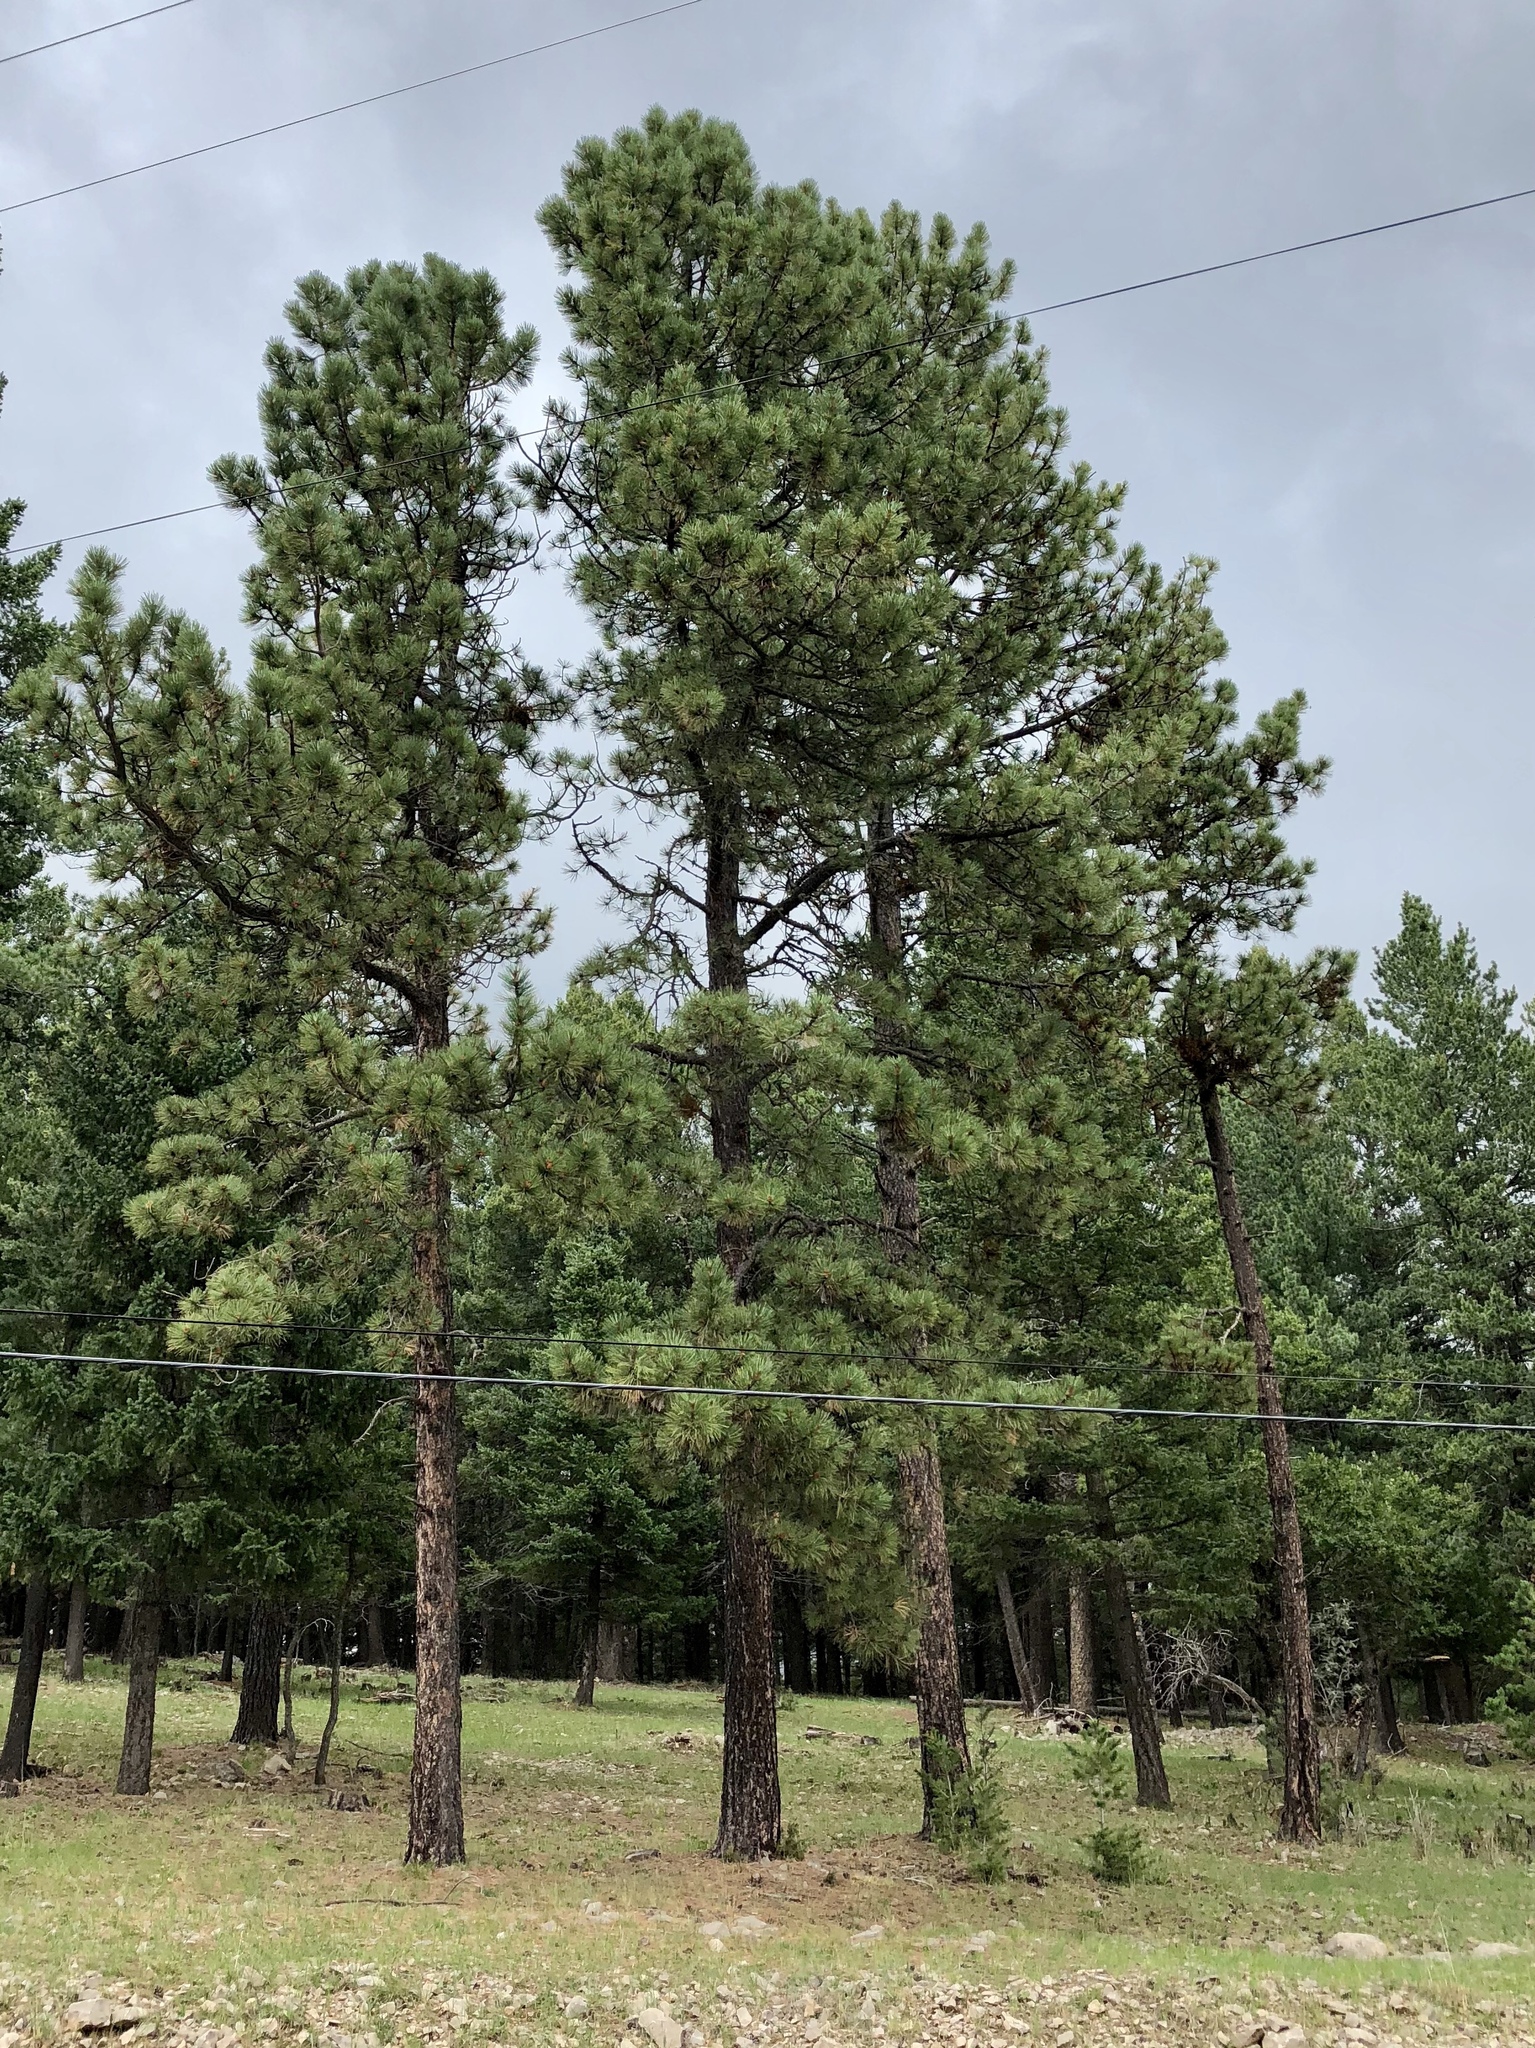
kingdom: Plantae
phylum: Tracheophyta
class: Pinopsida
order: Pinales
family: Pinaceae
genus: Pinus
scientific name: Pinus ponderosa
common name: Western yellow-pine
